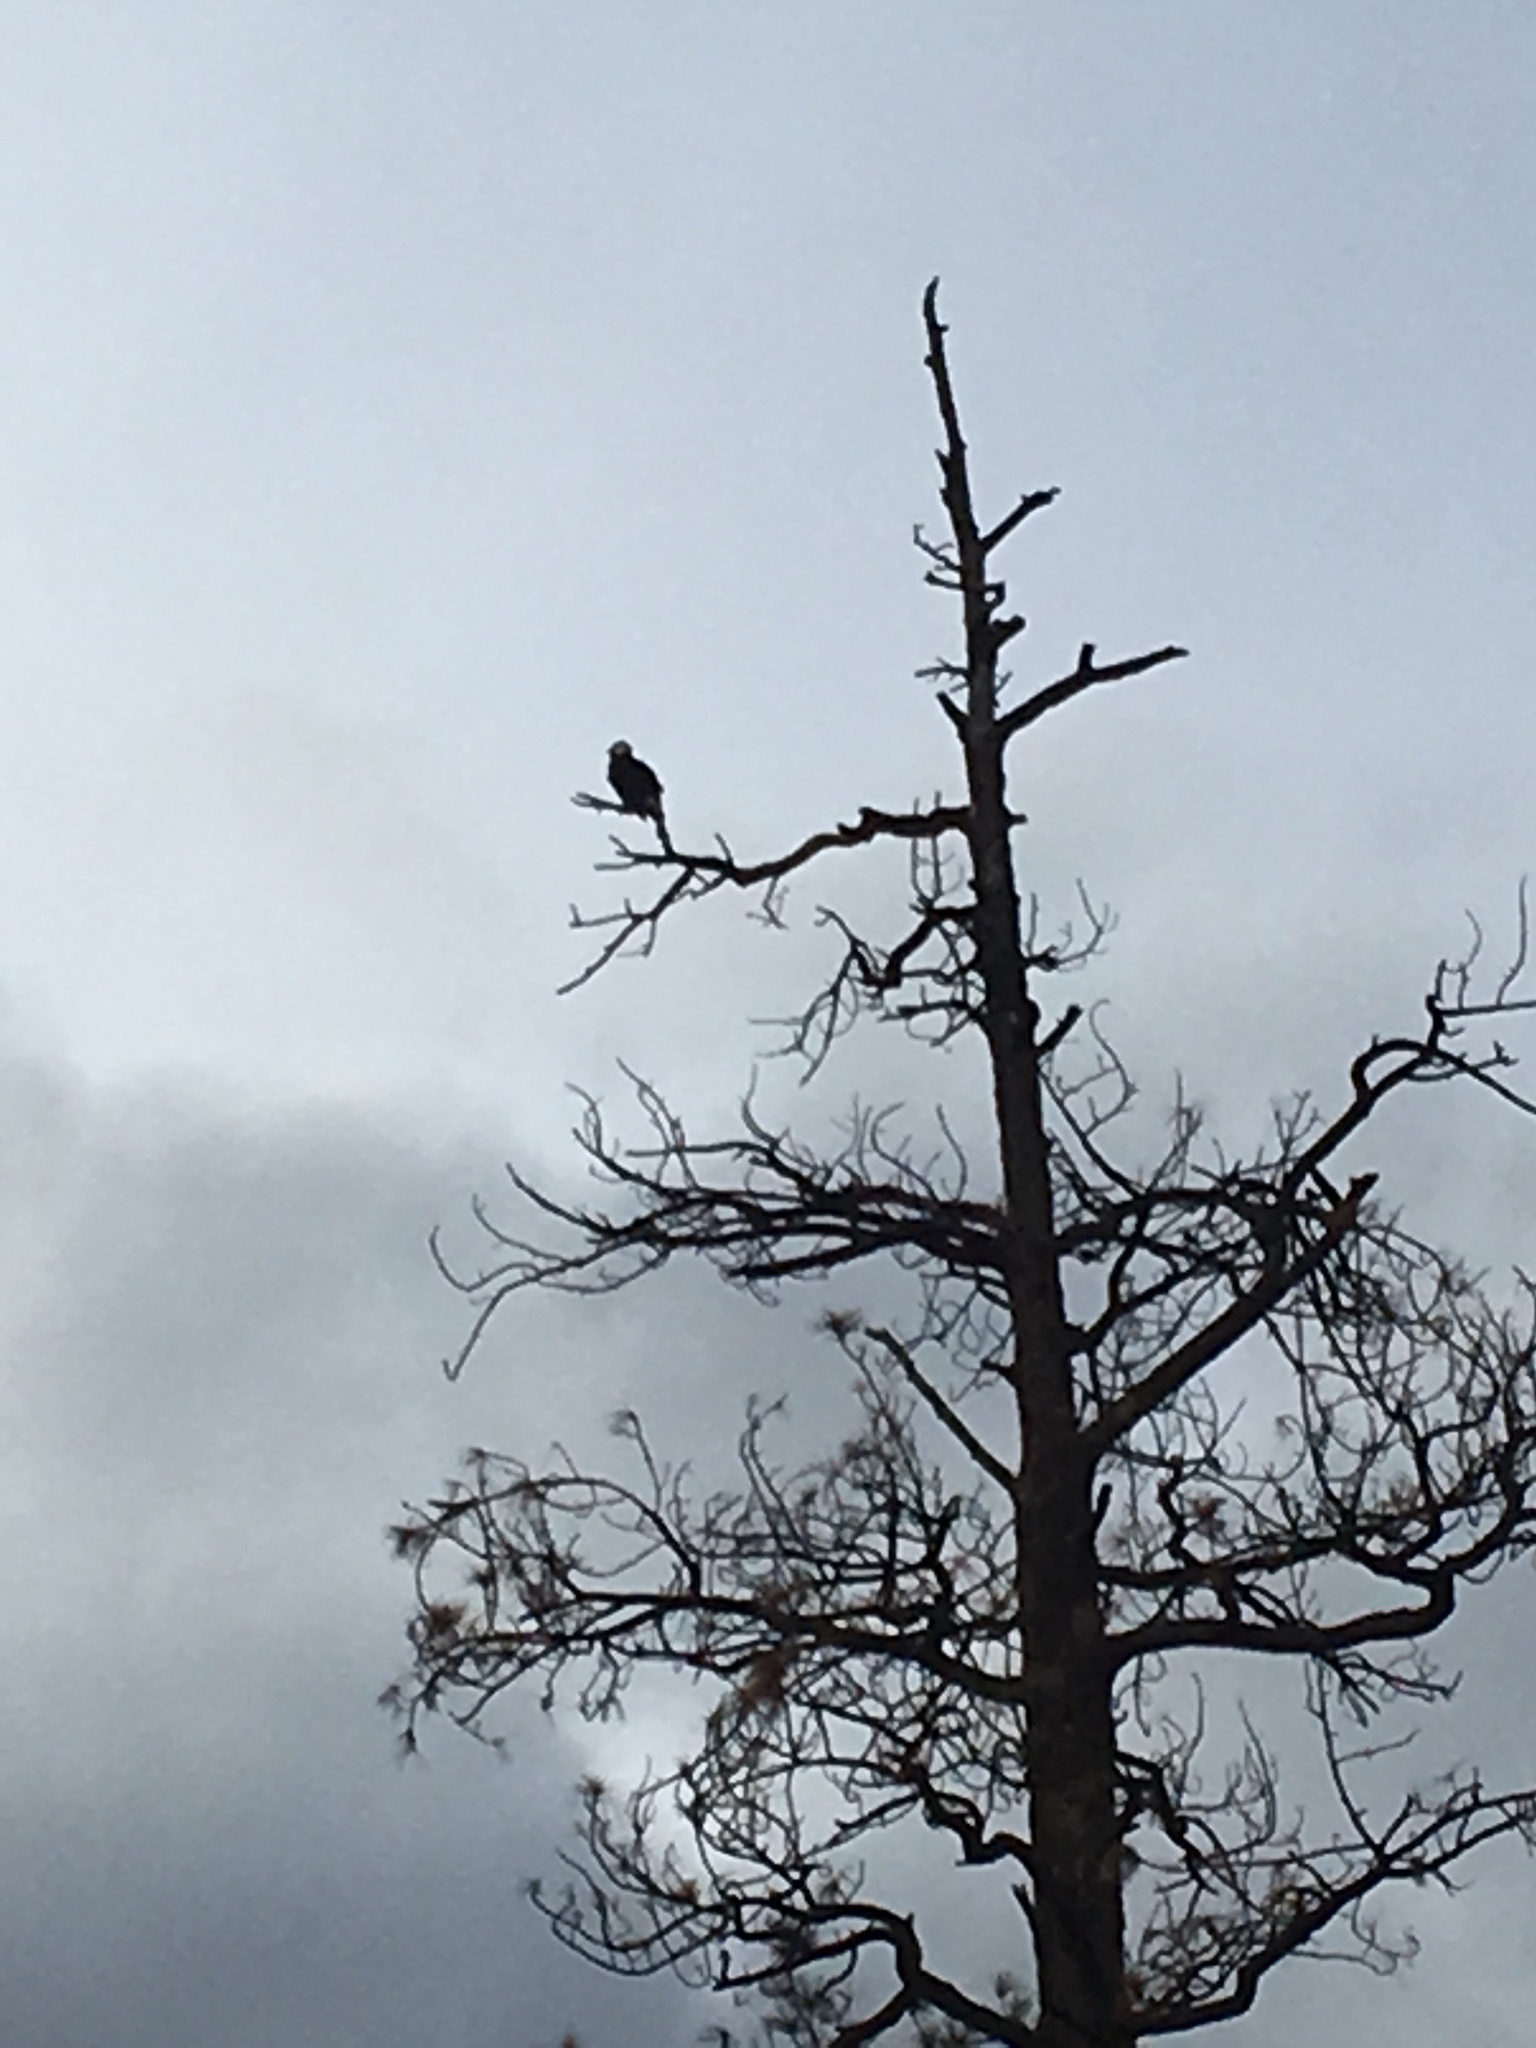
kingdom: Animalia
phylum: Chordata
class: Aves
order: Accipitriformes
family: Accipitridae
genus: Haliaeetus
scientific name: Haliaeetus leucocephalus
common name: Bald eagle
